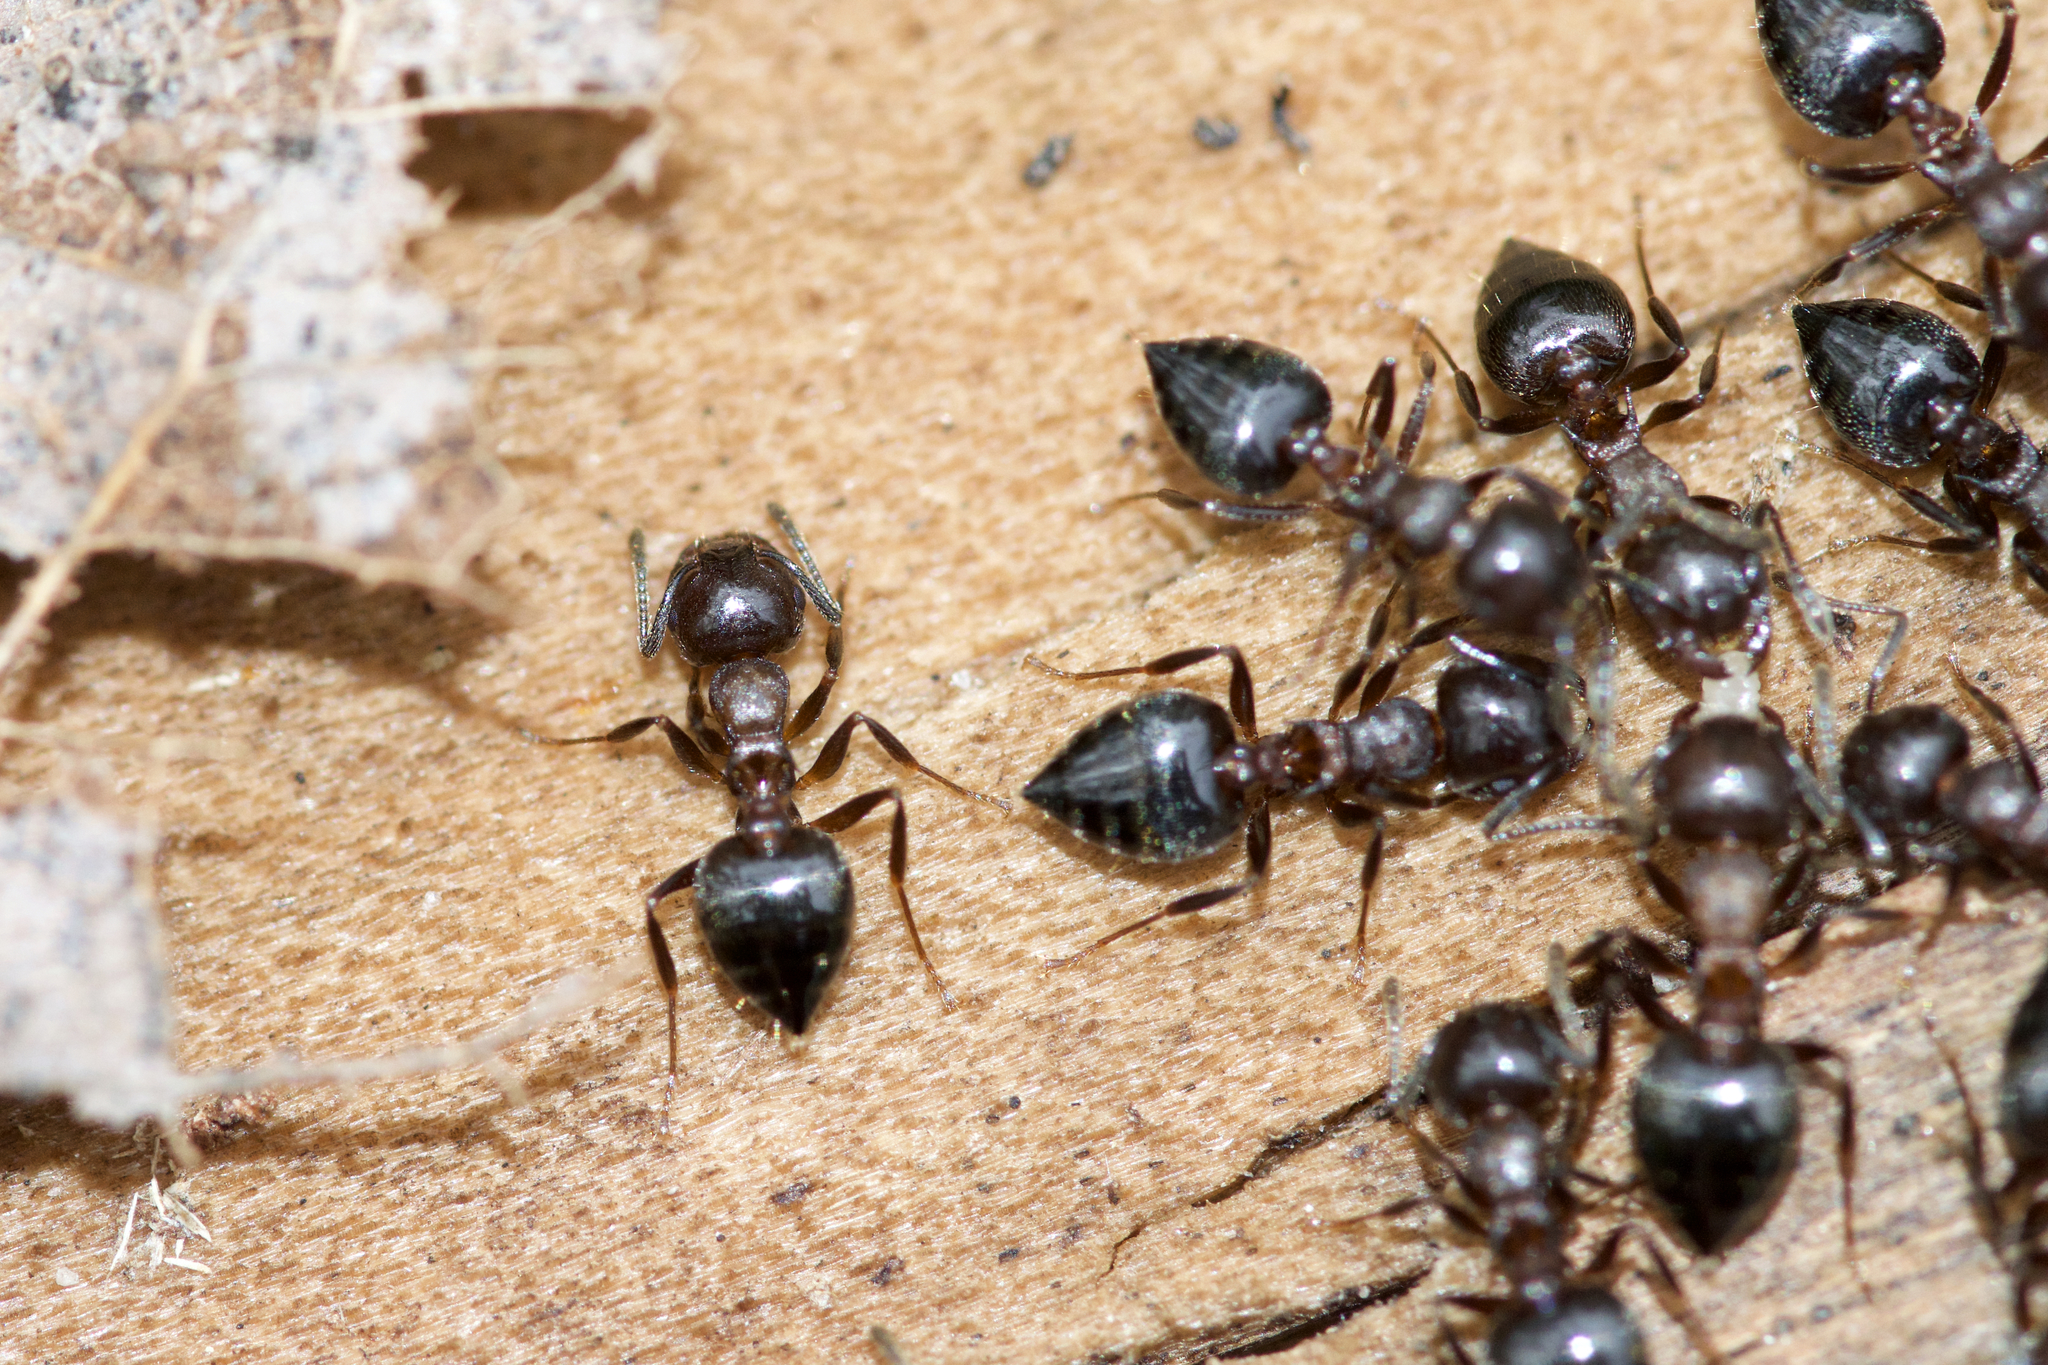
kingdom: Animalia
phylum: Arthropoda
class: Insecta
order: Hymenoptera
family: Formicidae
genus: Crematogaster
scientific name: Crematogaster cerasi
